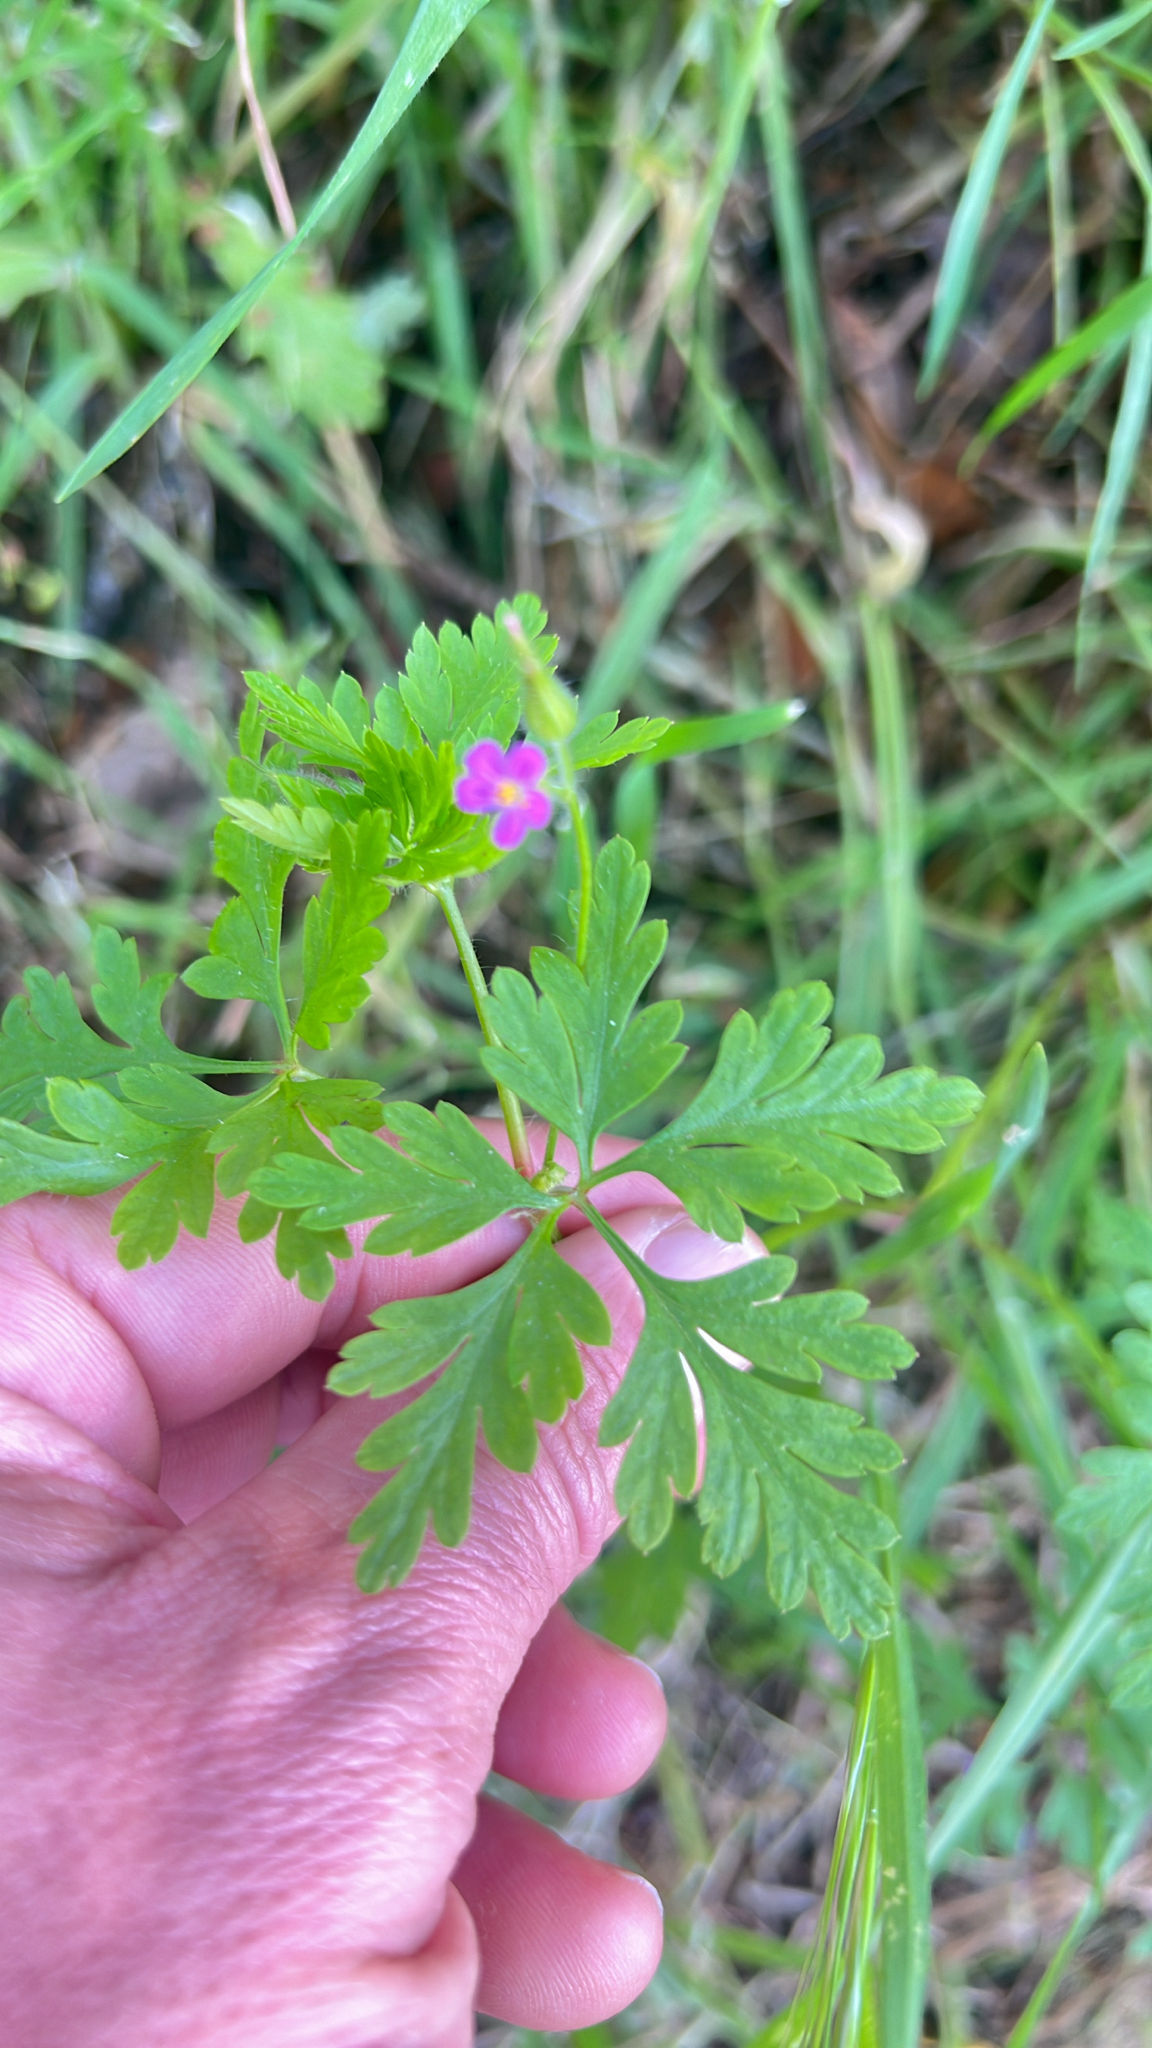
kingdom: Plantae
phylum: Tracheophyta
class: Magnoliopsida
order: Geraniales
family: Geraniaceae
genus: Geranium
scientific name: Geranium purpureum
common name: Little-robin
